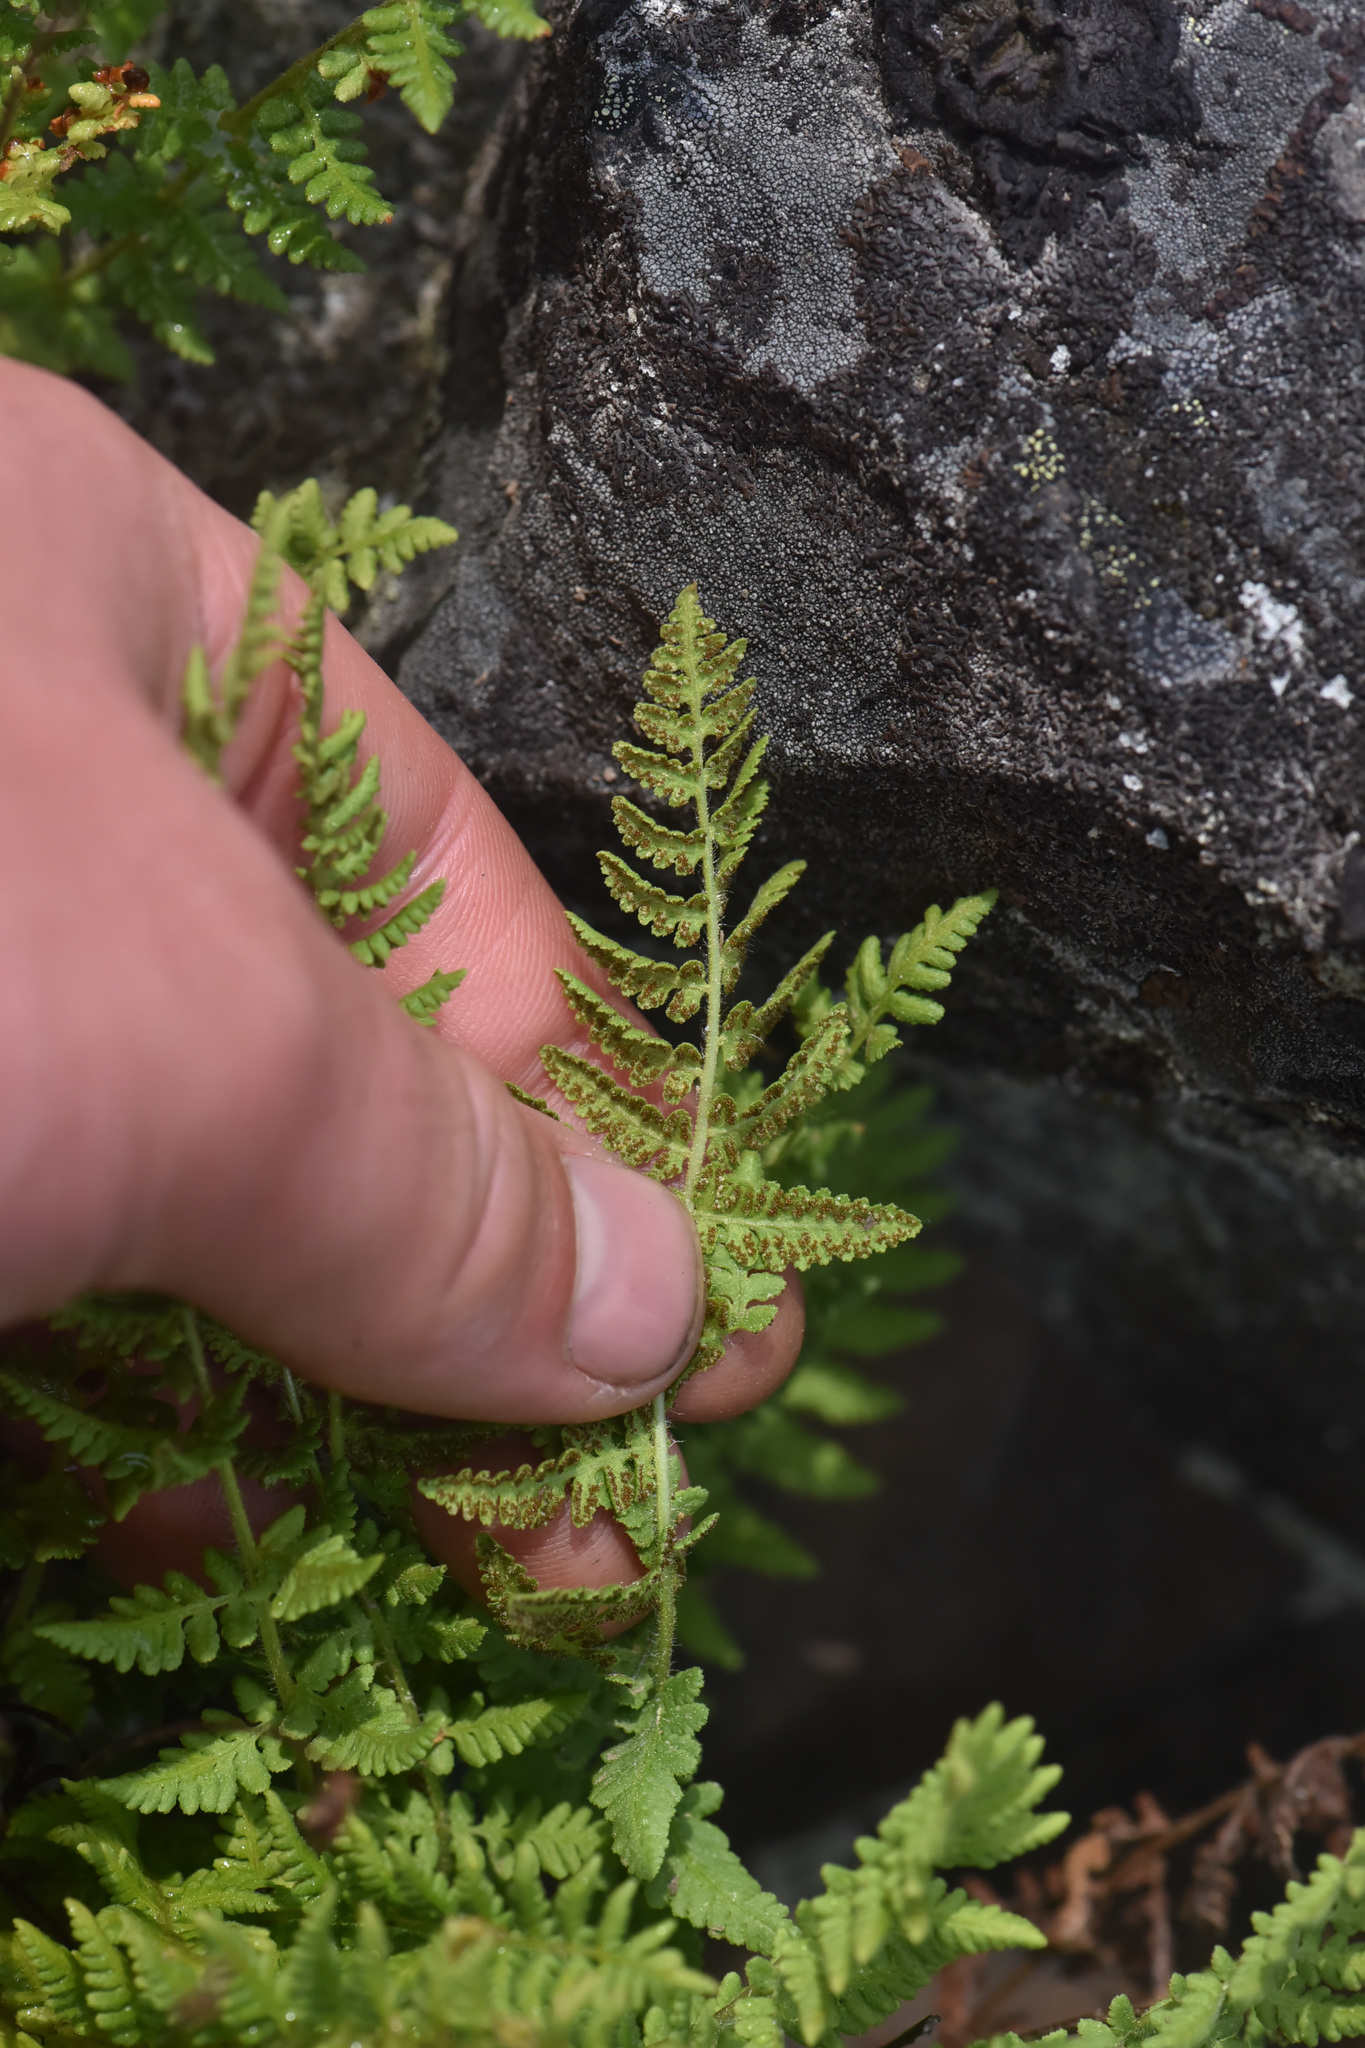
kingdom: Plantae
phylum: Tracheophyta
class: Polypodiopsida
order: Polypodiales
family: Woodsiaceae
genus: Physematium
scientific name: Physematium scopulinum
